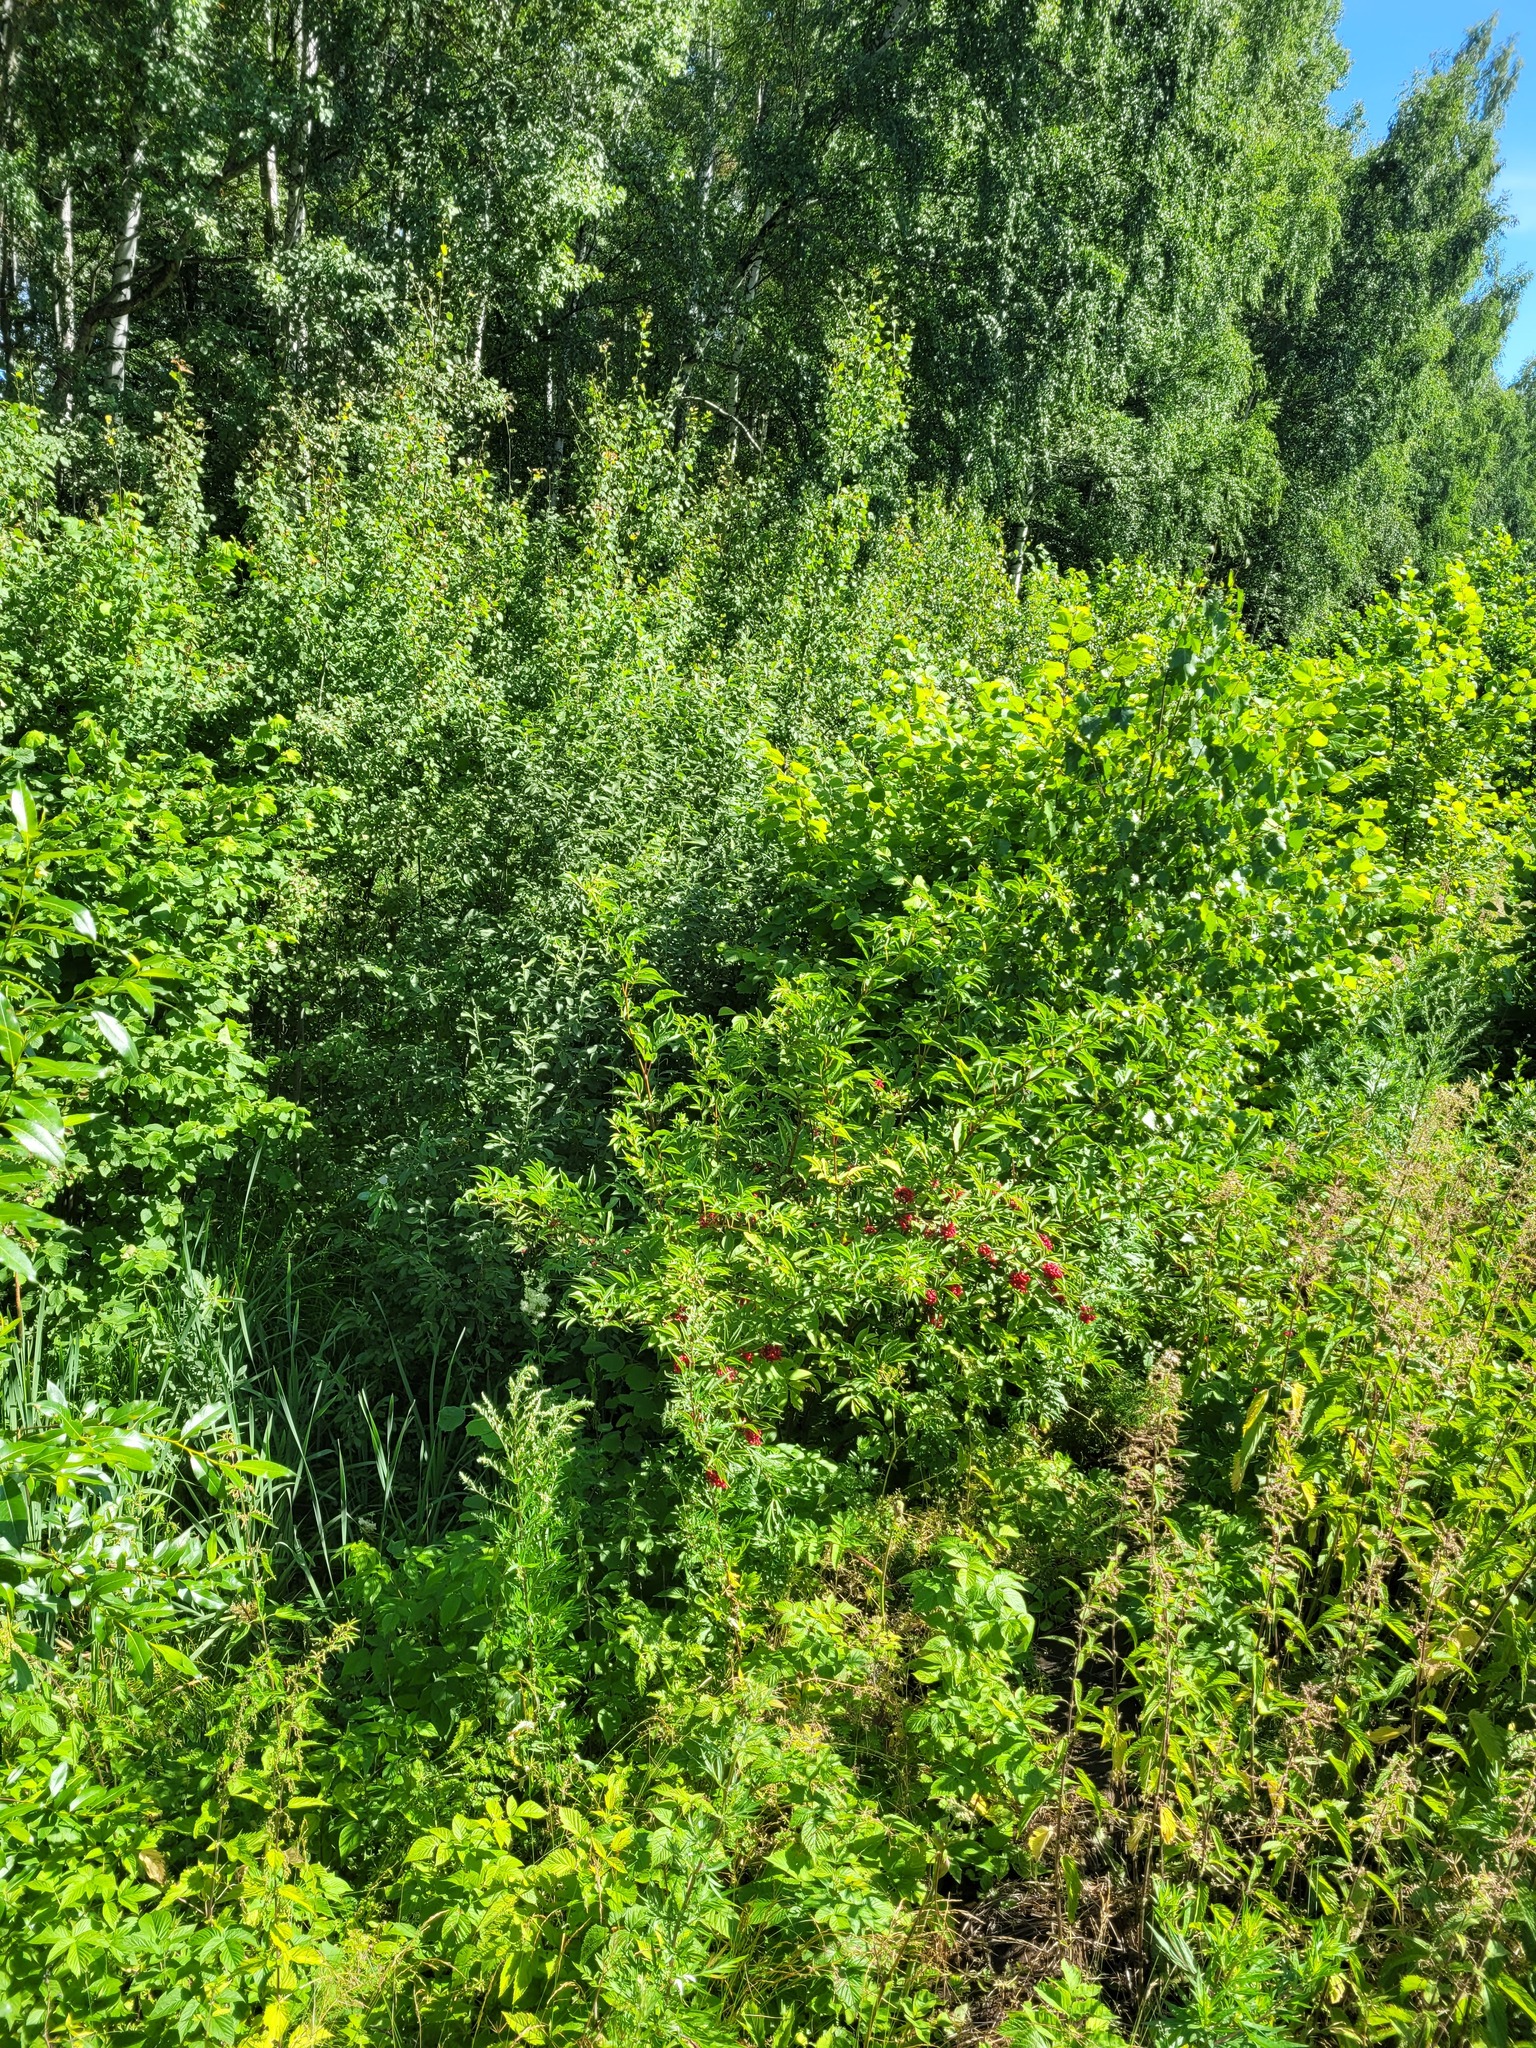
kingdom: Plantae
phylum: Tracheophyta
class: Magnoliopsida
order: Dipsacales
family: Viburnaceae
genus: Sambucus
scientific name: Sambucus racemosa
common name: Red-berried elder
